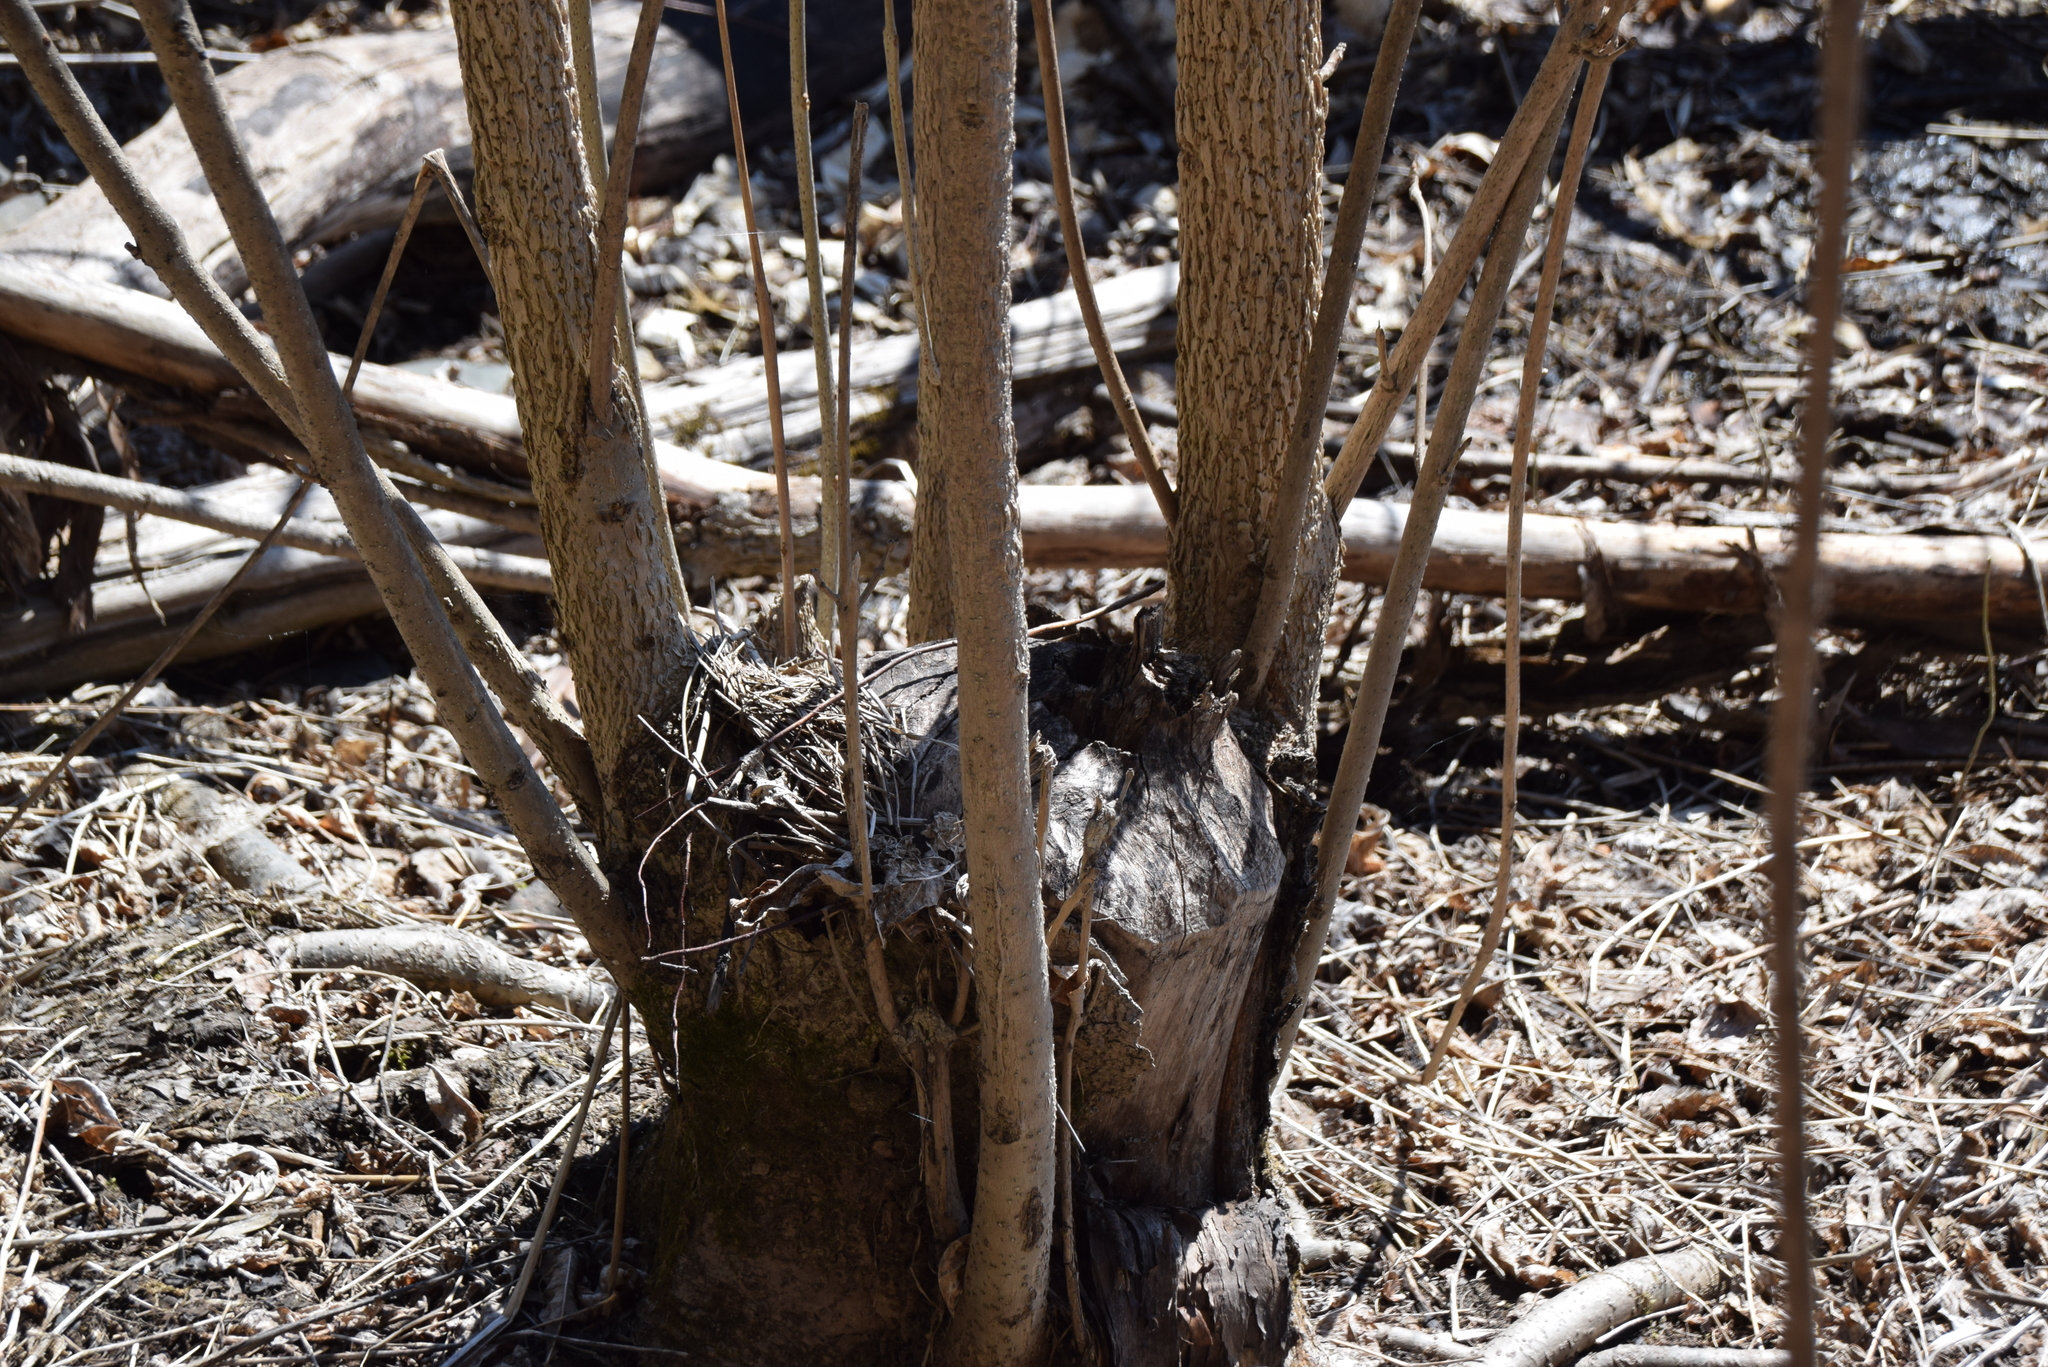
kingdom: Plantae
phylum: Tracheophyta
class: Magnoliopsida
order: Lamiales
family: Oleaceae
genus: Fraxinus
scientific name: Fraxinus nigra
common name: Black ash
